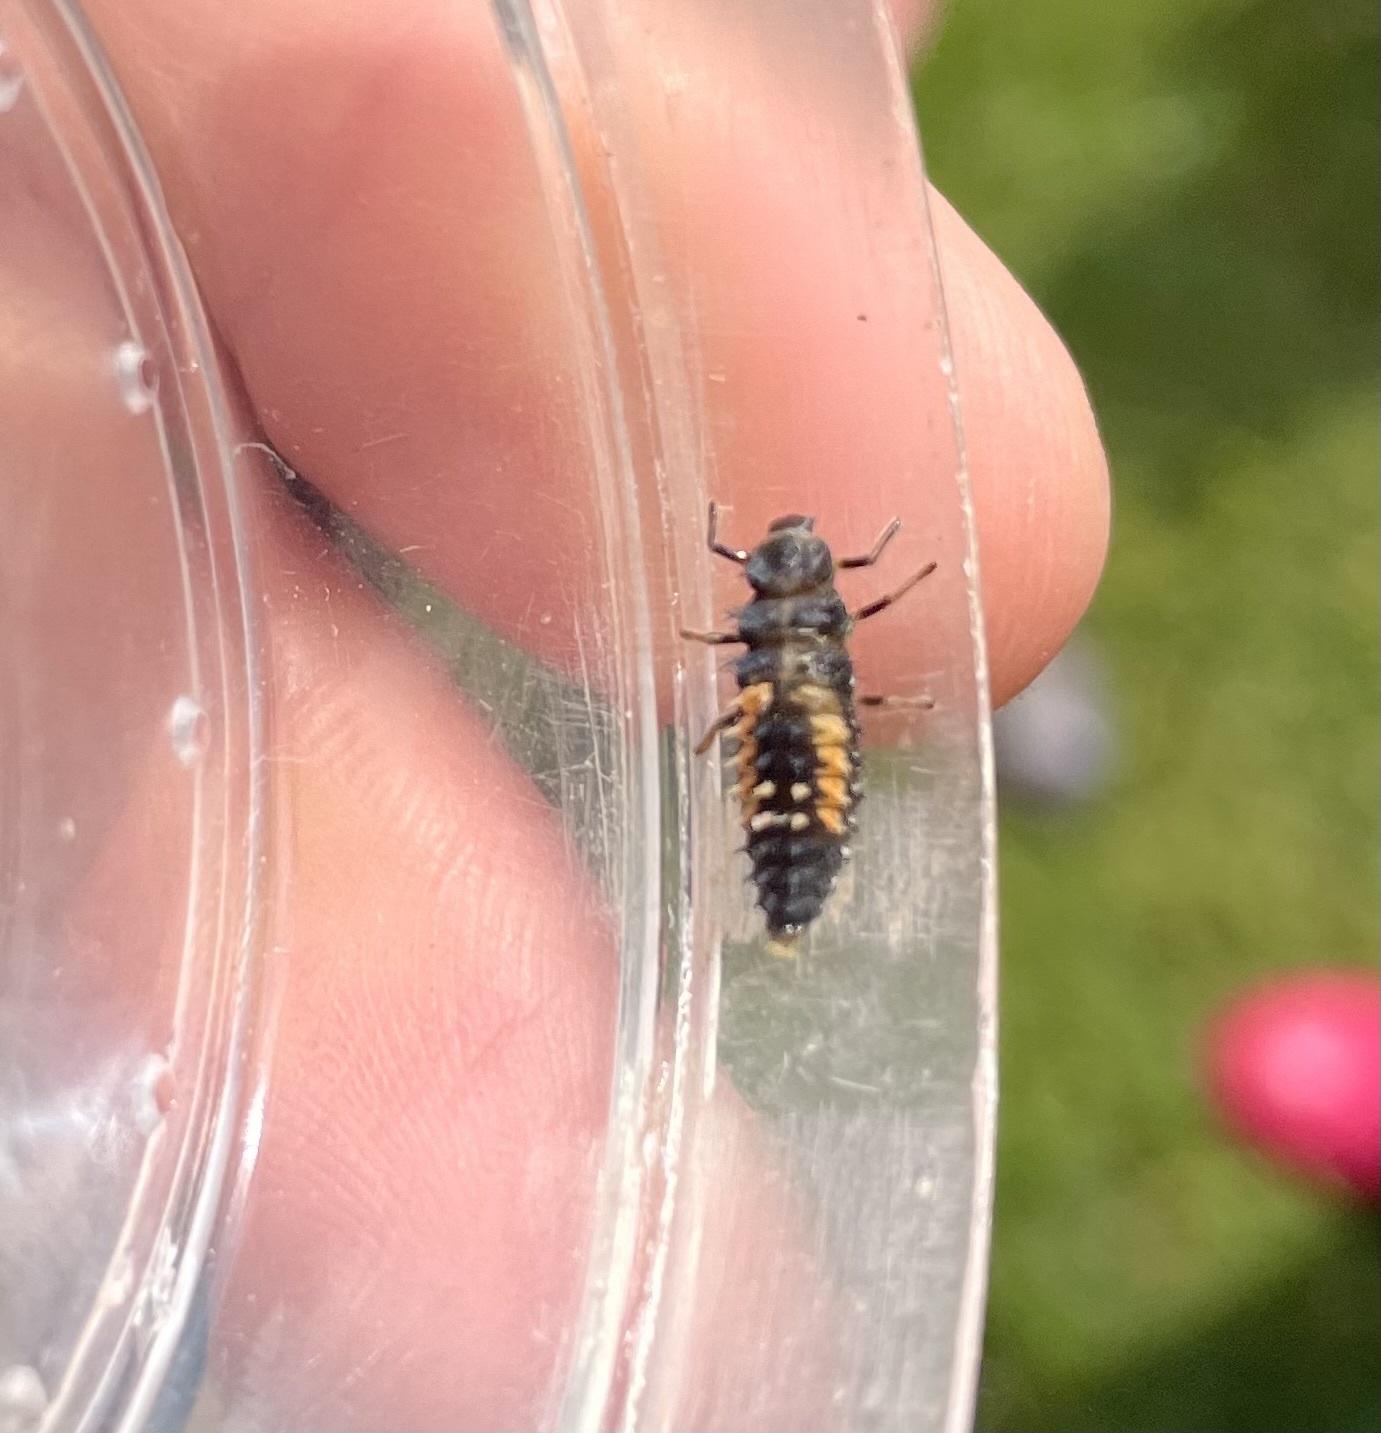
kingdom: Animalia
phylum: Arthropoda
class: Insecta
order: Coleoptera
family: Coccinellidae
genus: Harmonia
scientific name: Harmonia axyridis
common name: Harlequin ladybird
